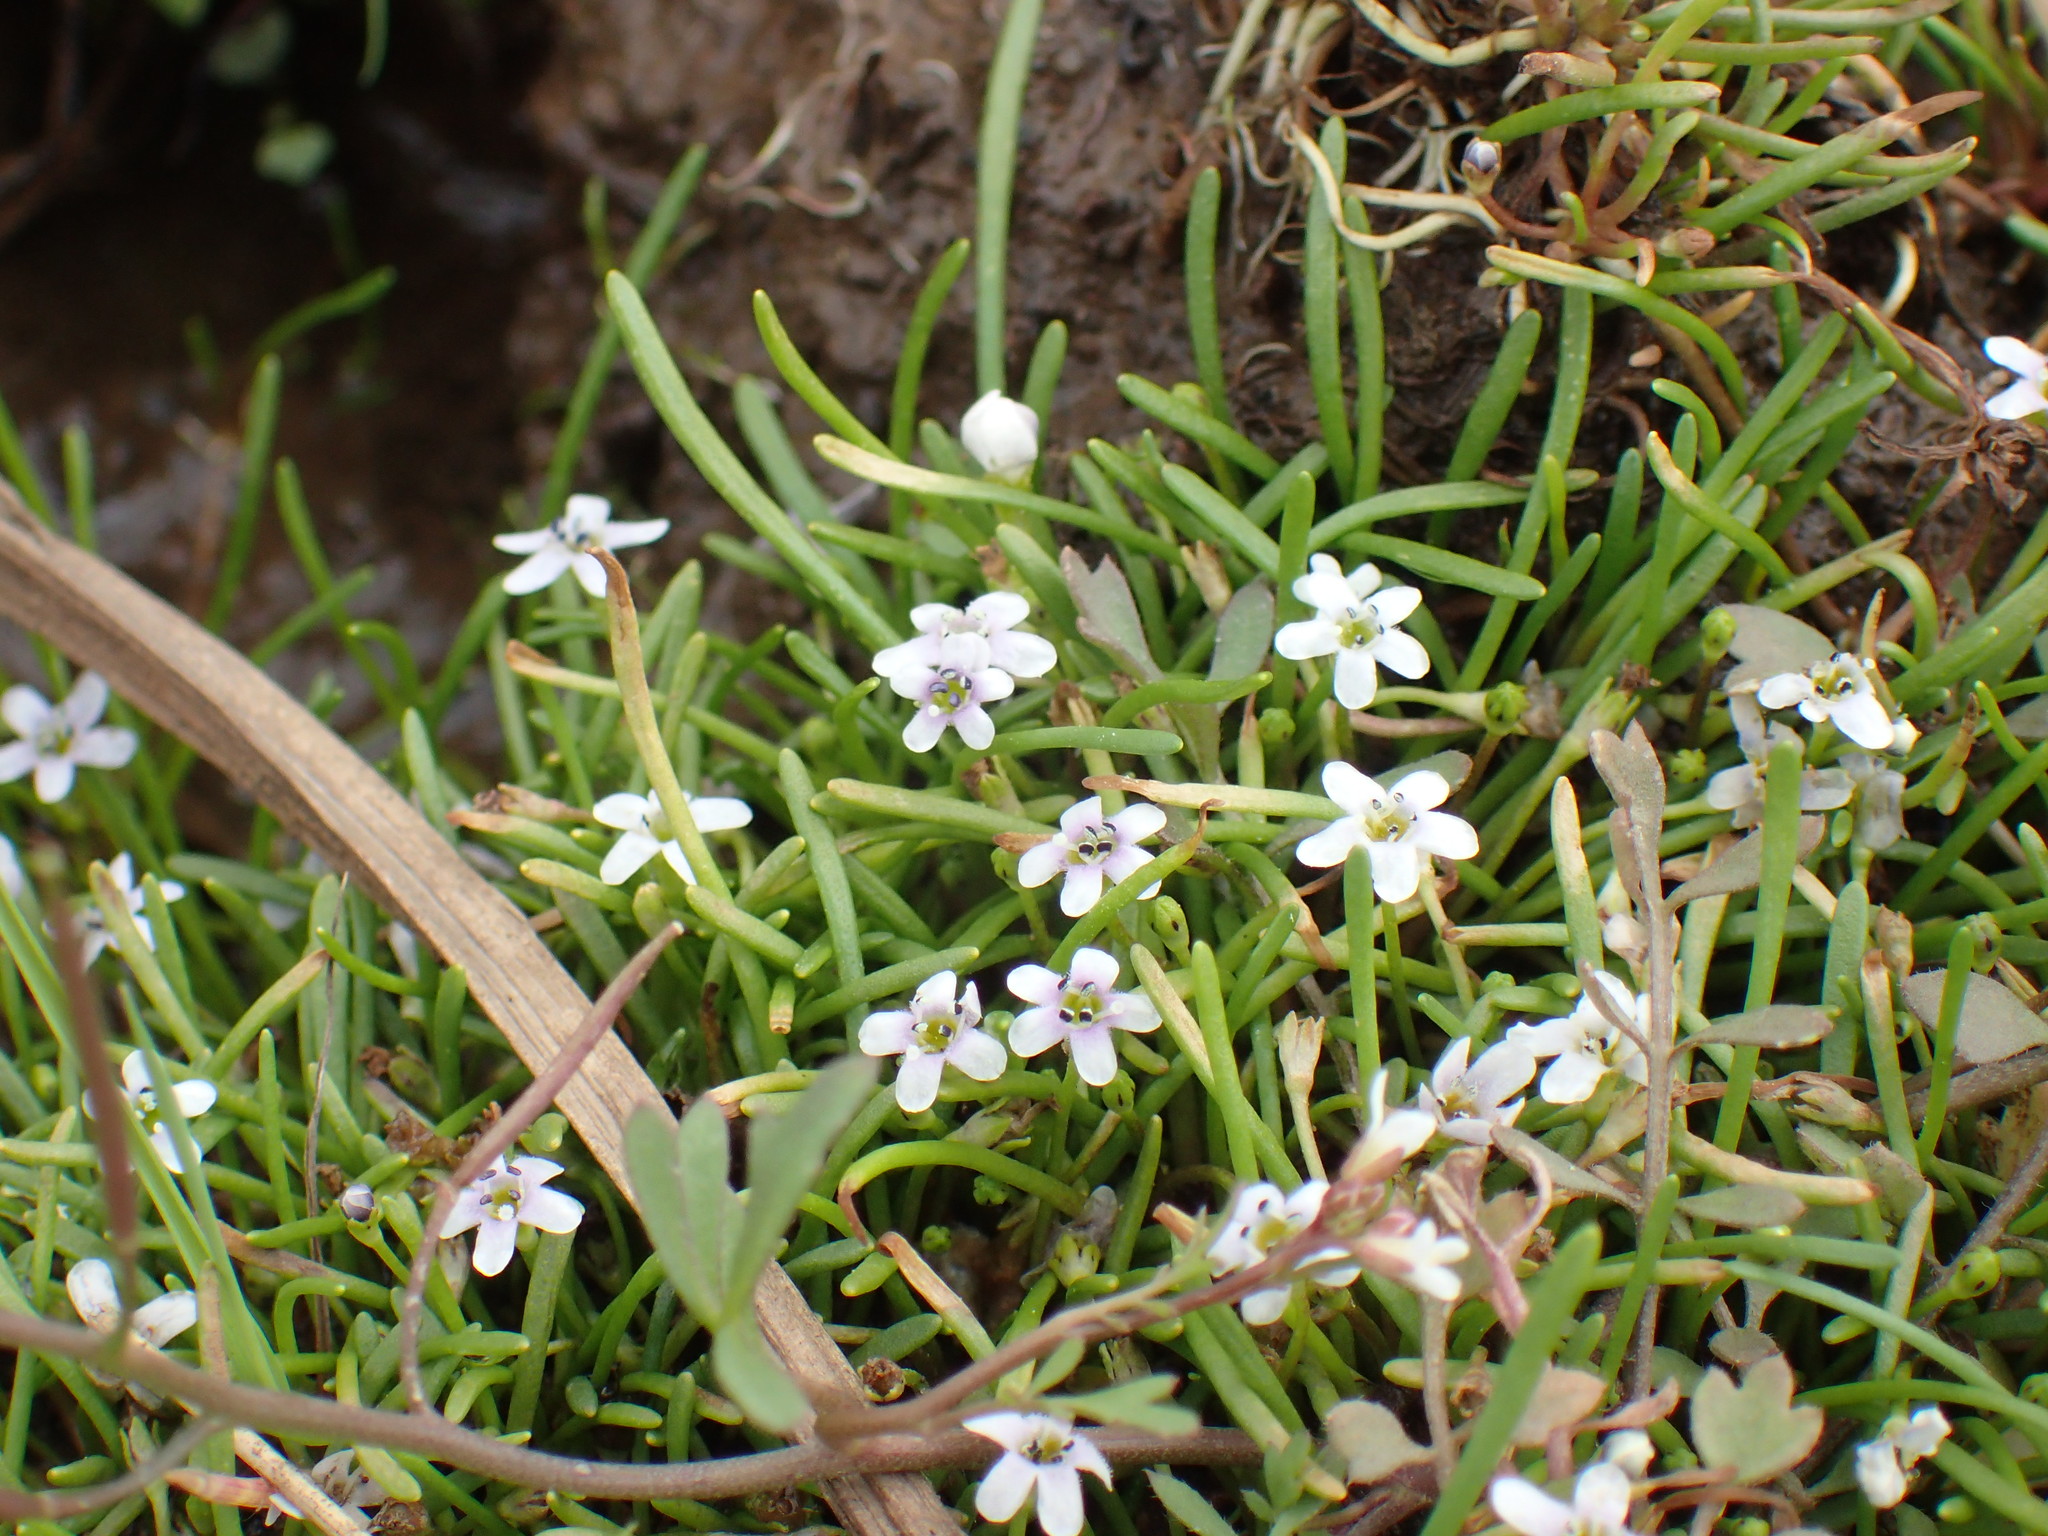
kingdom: Plantae
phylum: Tracheophyta
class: Magnoliopsida
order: Lamiales
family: Scrophulariaceae
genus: Limosella
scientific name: Limosella longiflora
